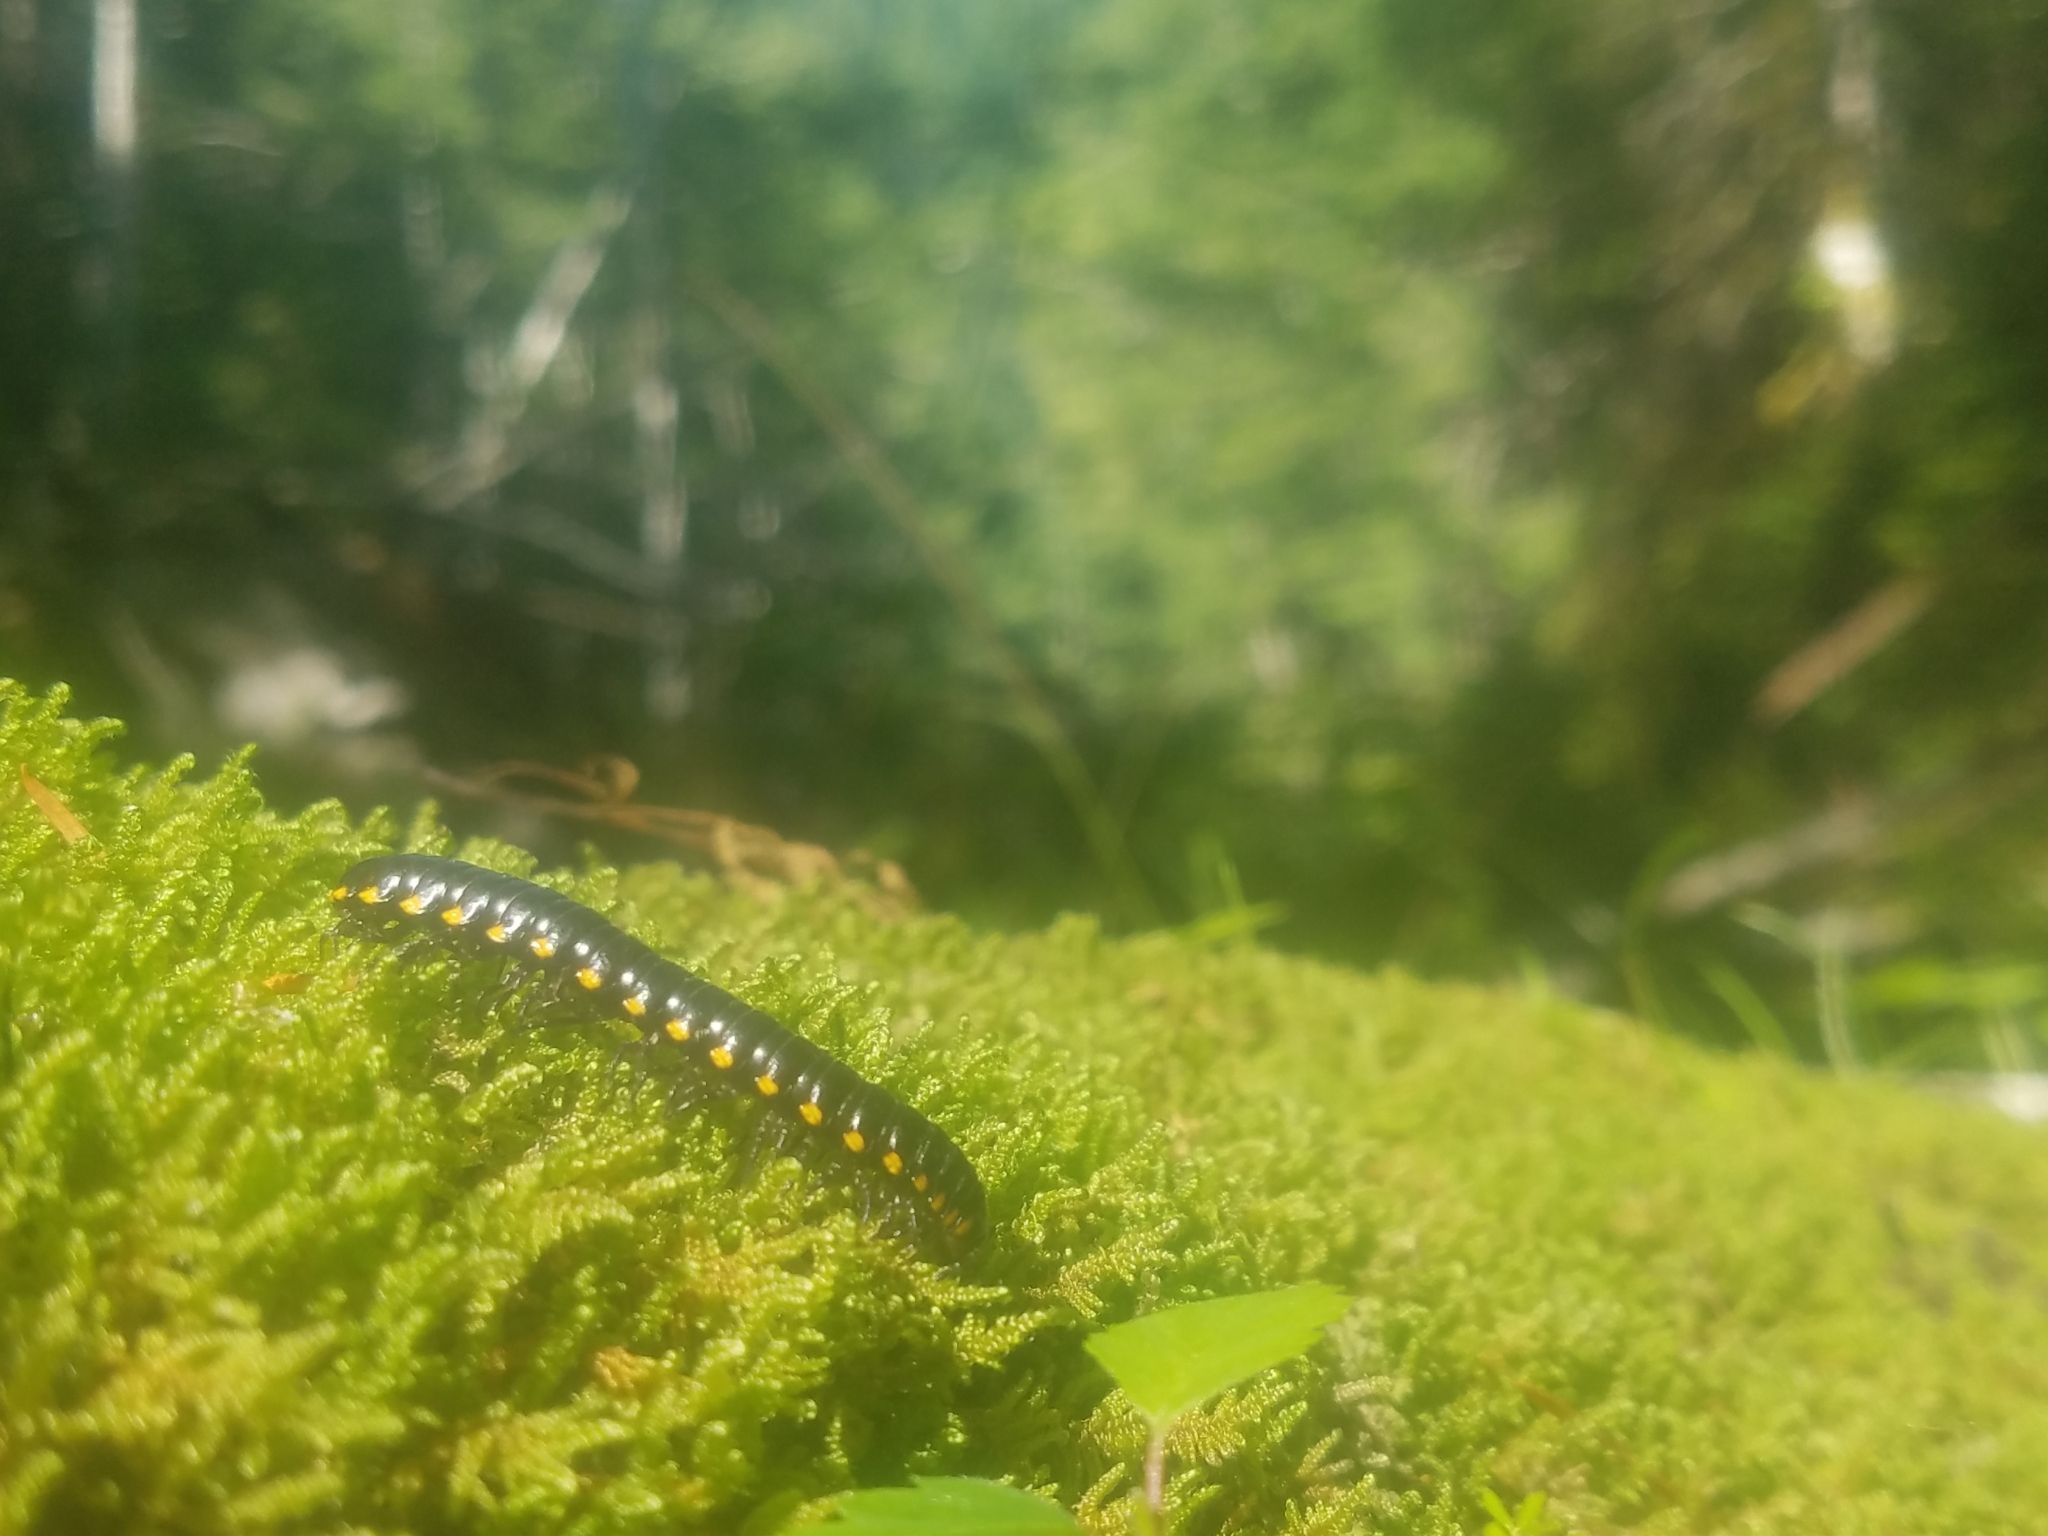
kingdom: Animalia
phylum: Arthropoda
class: Diplopoda
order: Polydesmida
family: Xystodesmidae
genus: Harpaphe
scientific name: Harpaphe haydeniana
